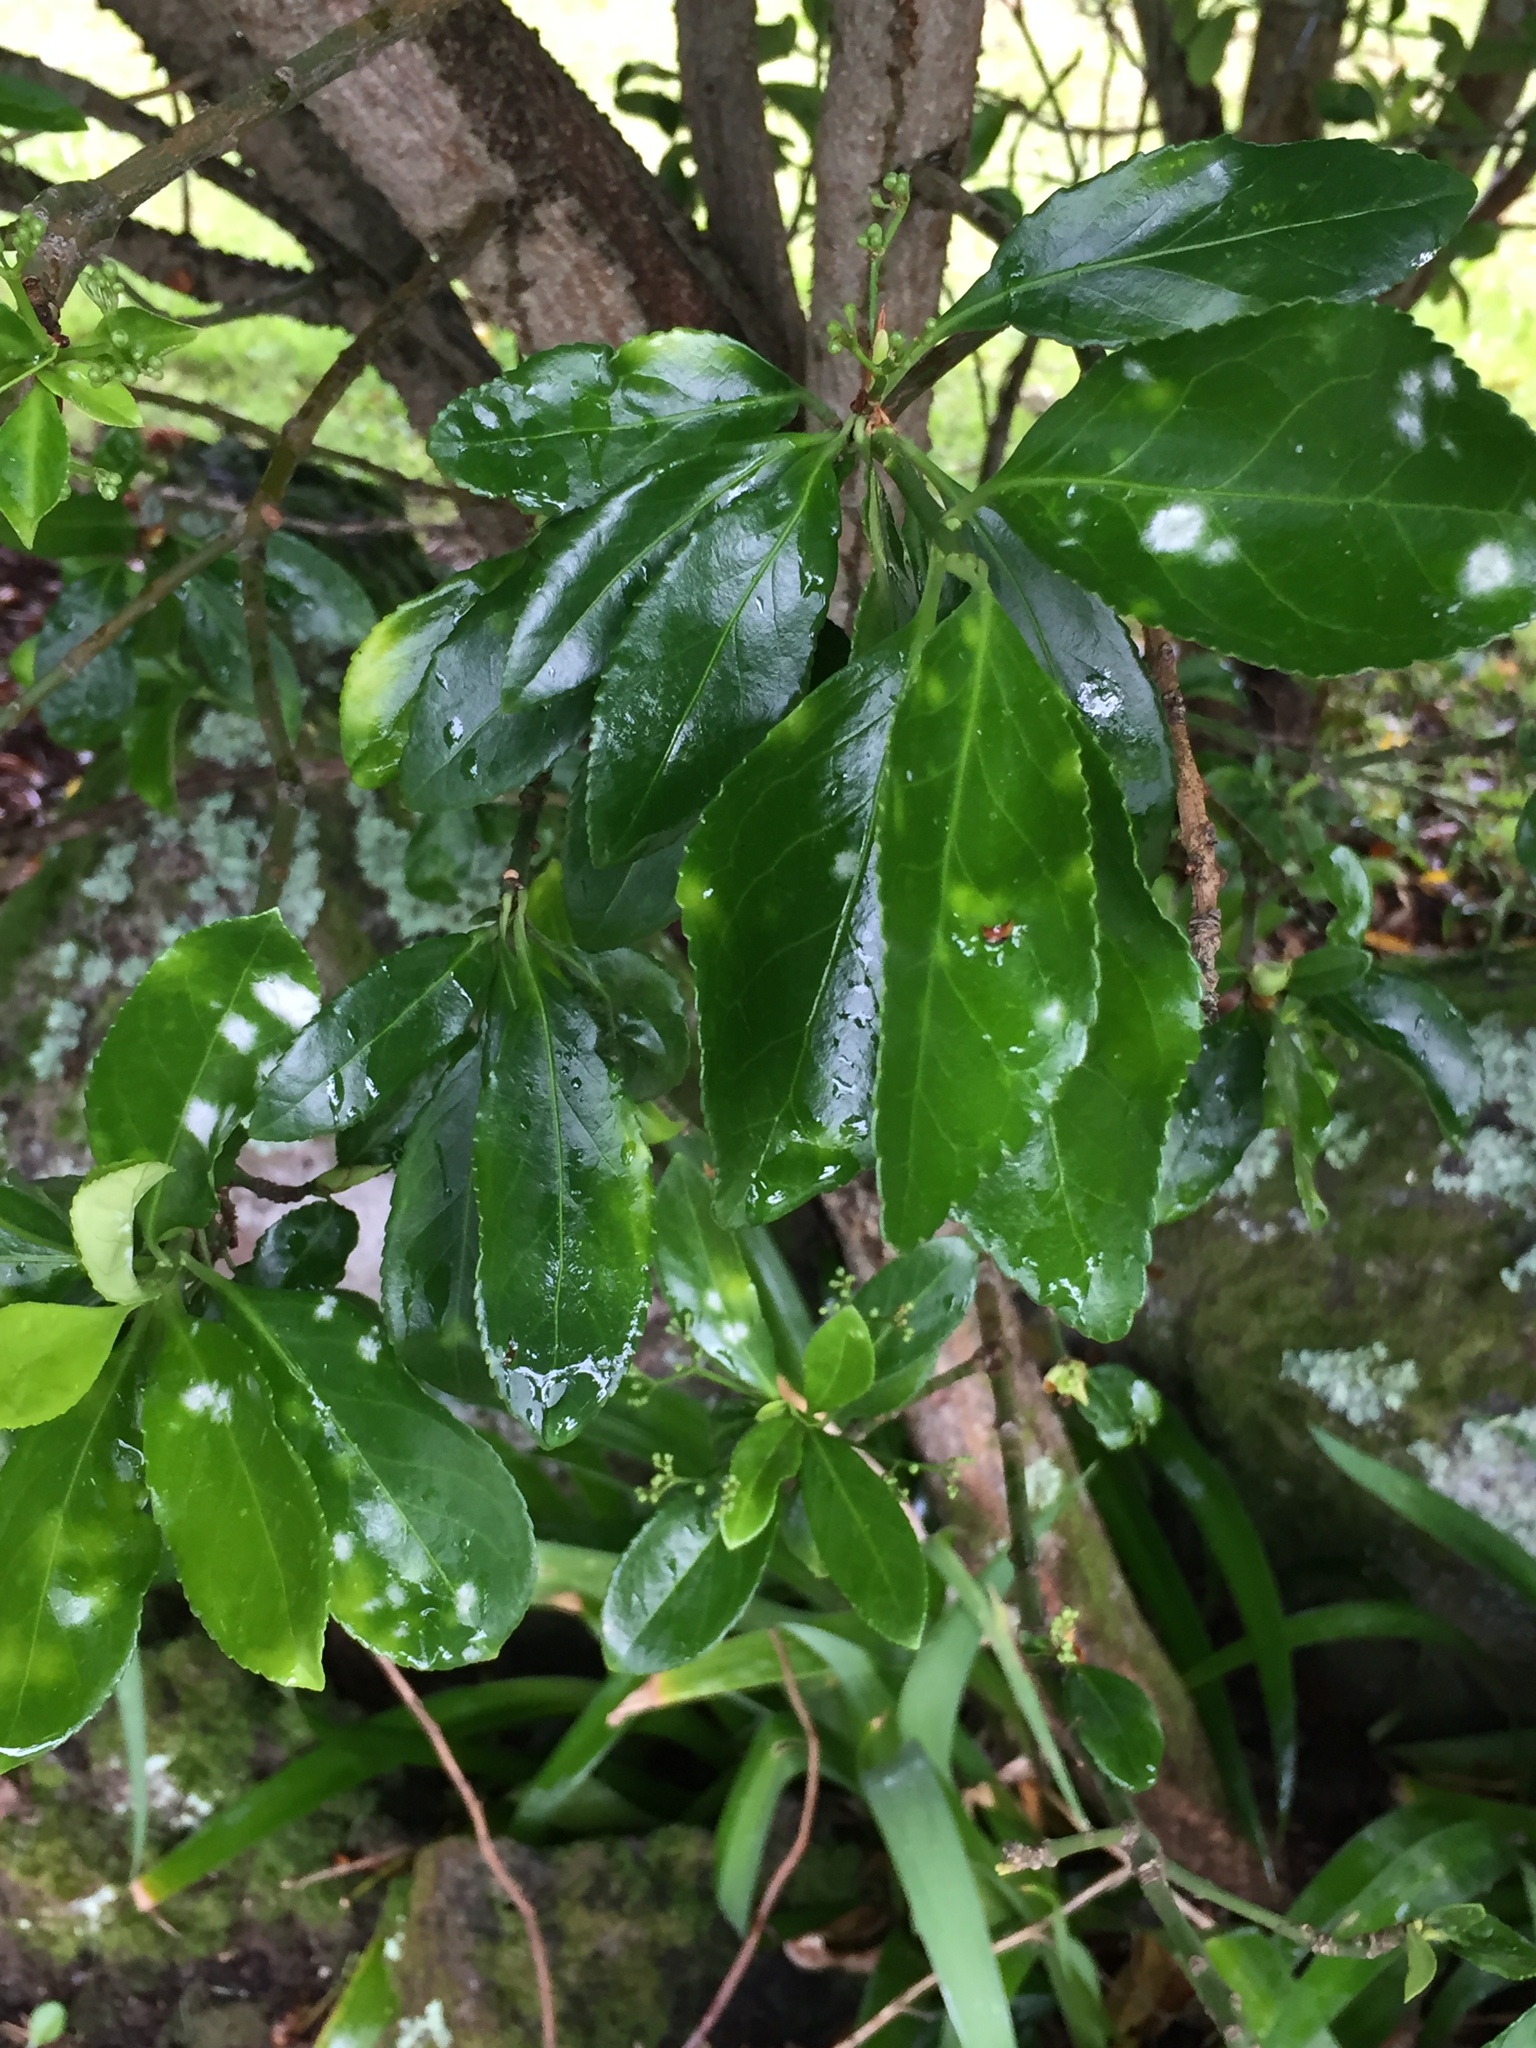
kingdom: Fungi
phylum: Ascomycota
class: Leotiomycetes
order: Helotiales
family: Erysiphaceae
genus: Erysiphe
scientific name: Erysiphe euonymicola
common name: Spindletree mildew
